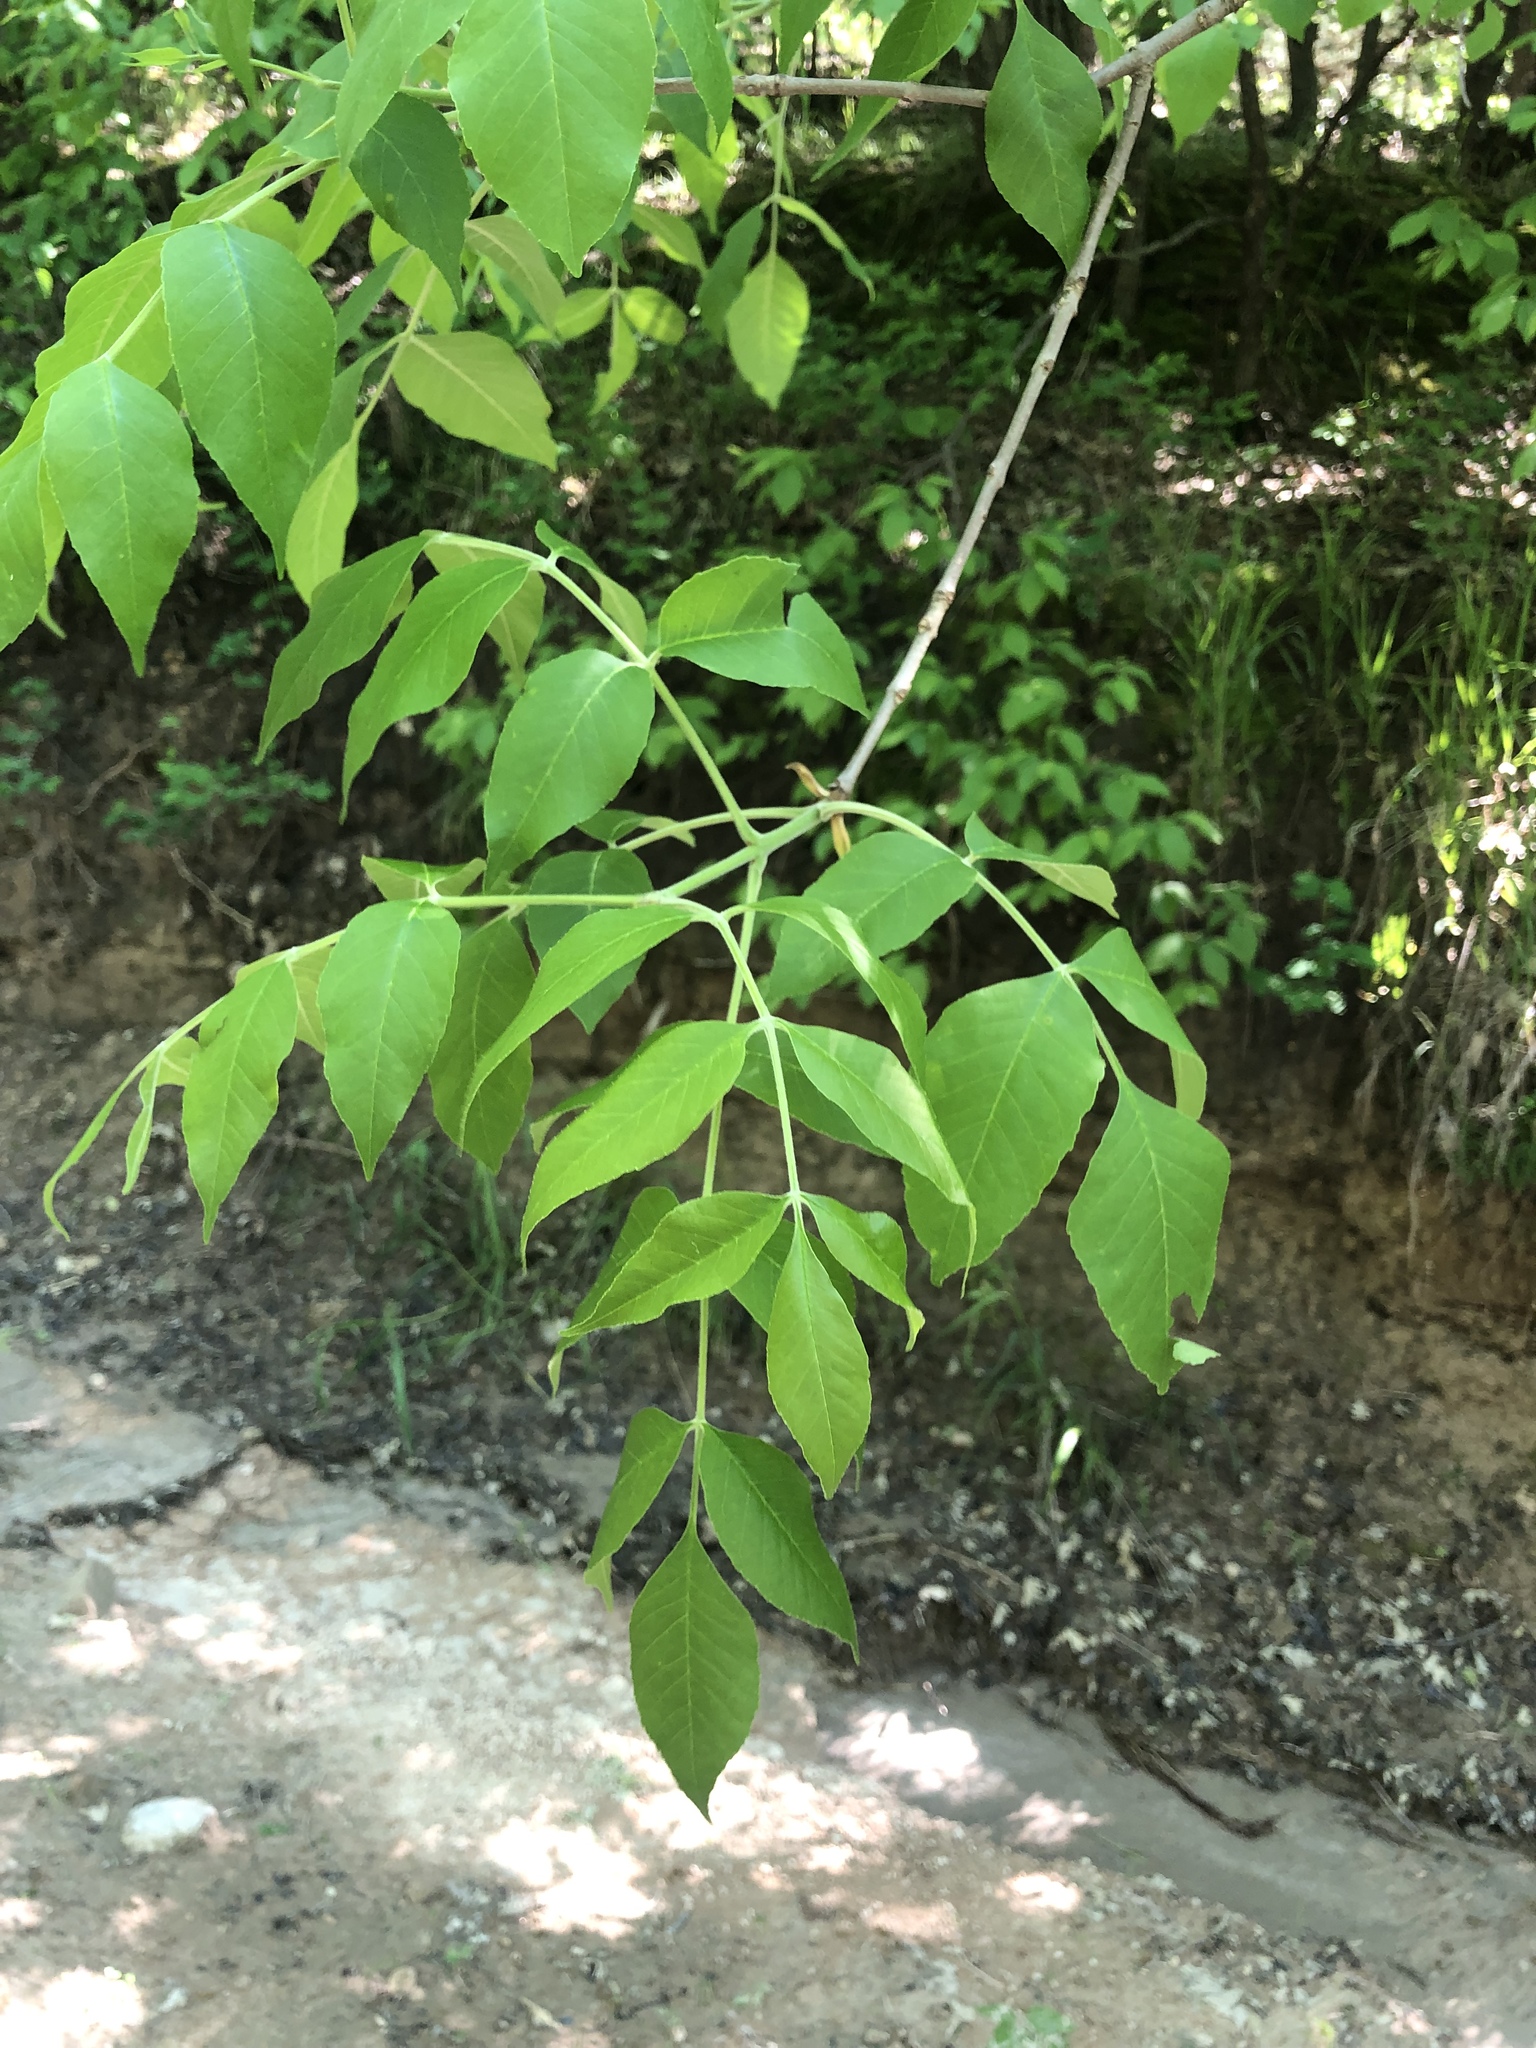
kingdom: Plantae
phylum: Tracheophyta
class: Magnoliopsida
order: Lamiales
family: Oleaceae
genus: Fraxinus
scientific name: Fraxinus pennsylvanica
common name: Green ash
